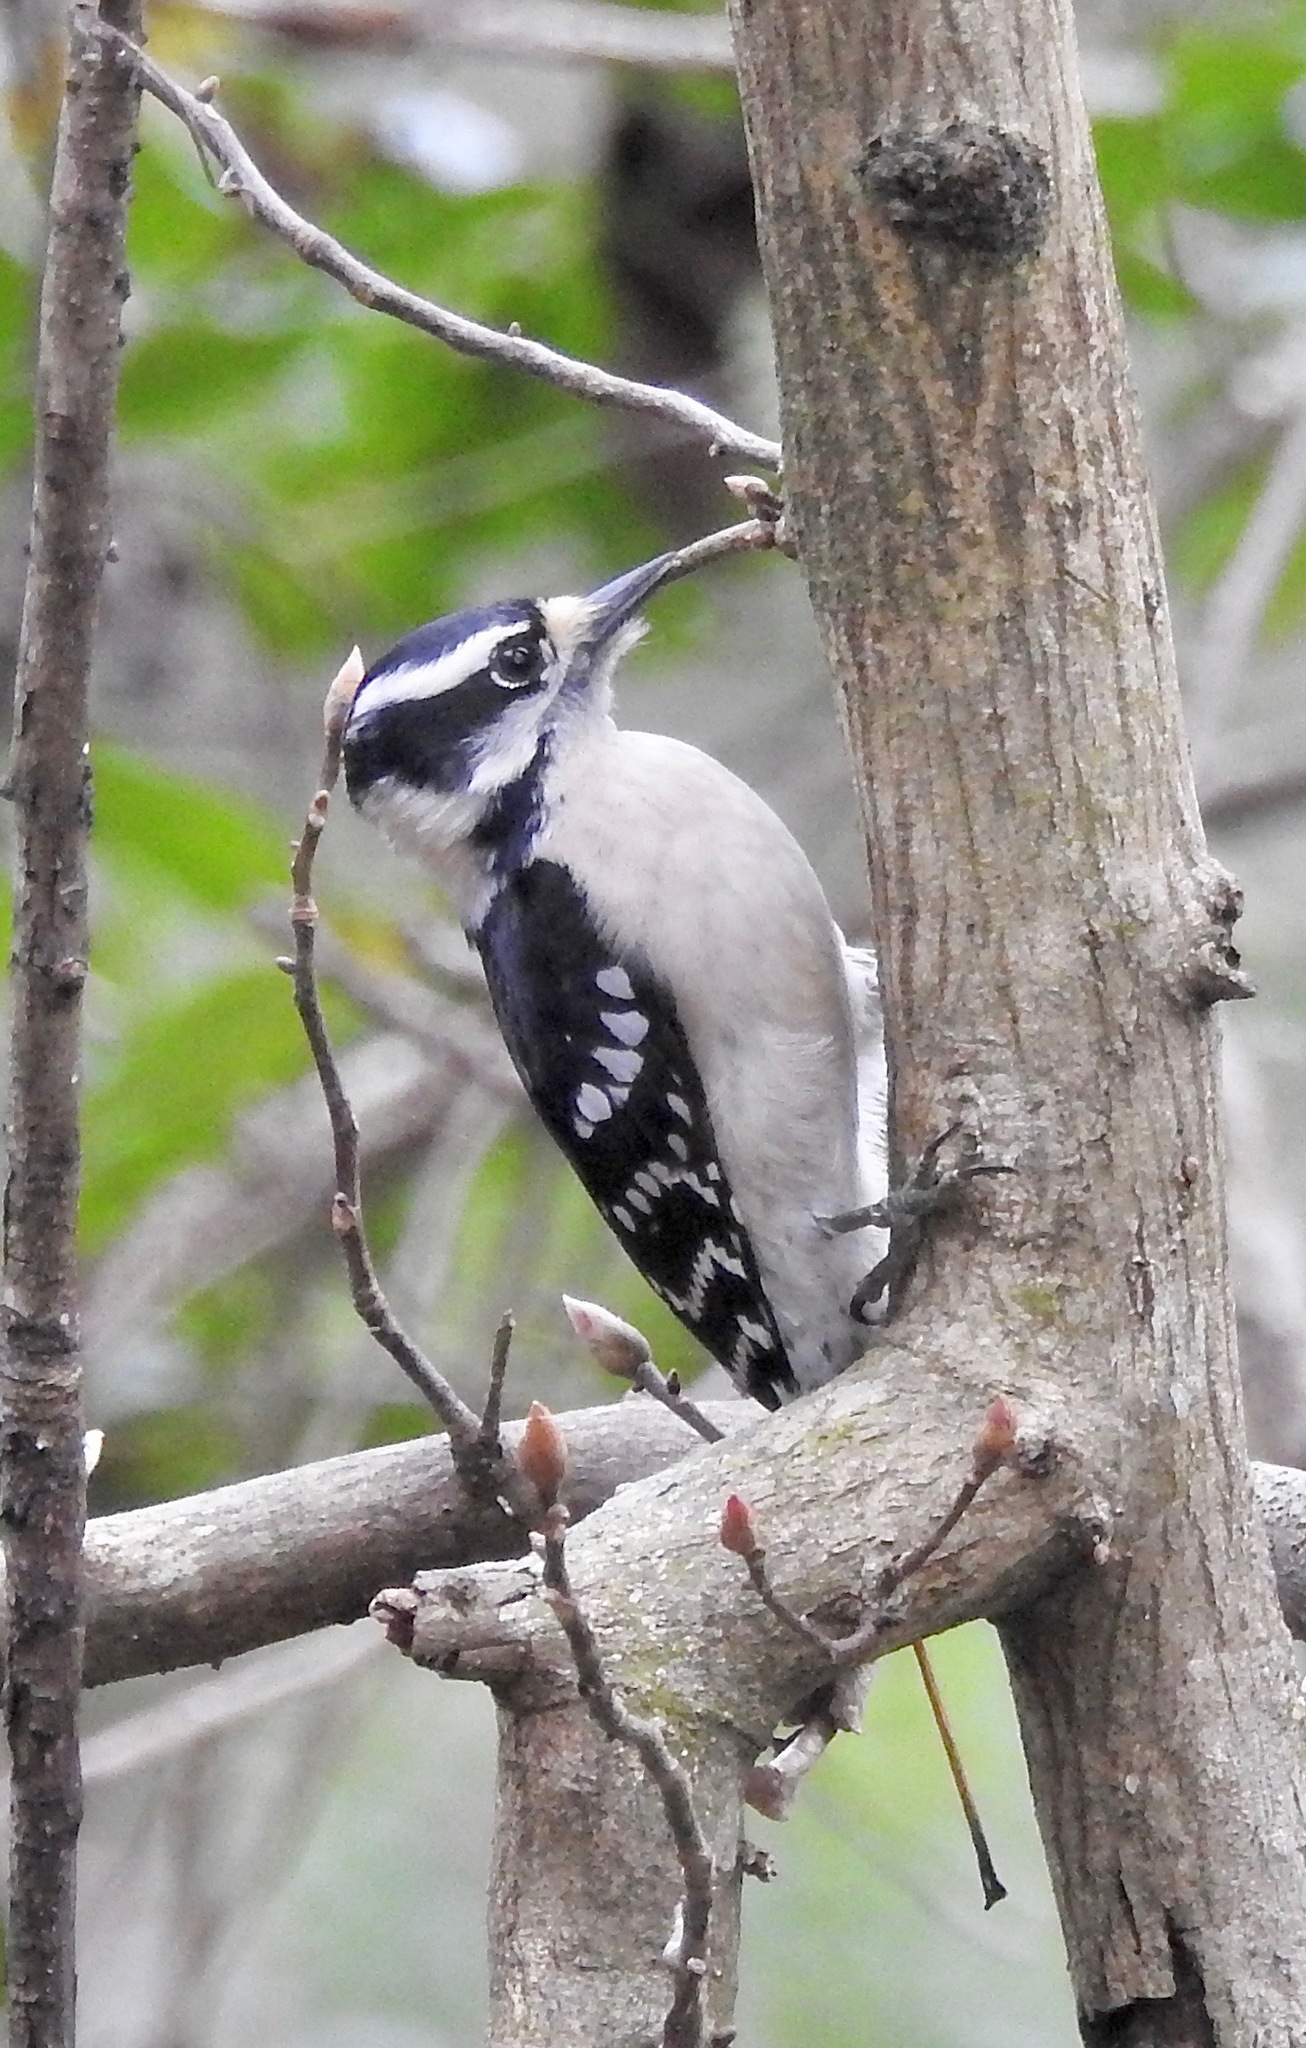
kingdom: Animalia
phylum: Chordata
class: Aves
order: Piciformes
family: Picidae
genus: Dryobates
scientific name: Dryobates pubescens
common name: Downy woodpecker
